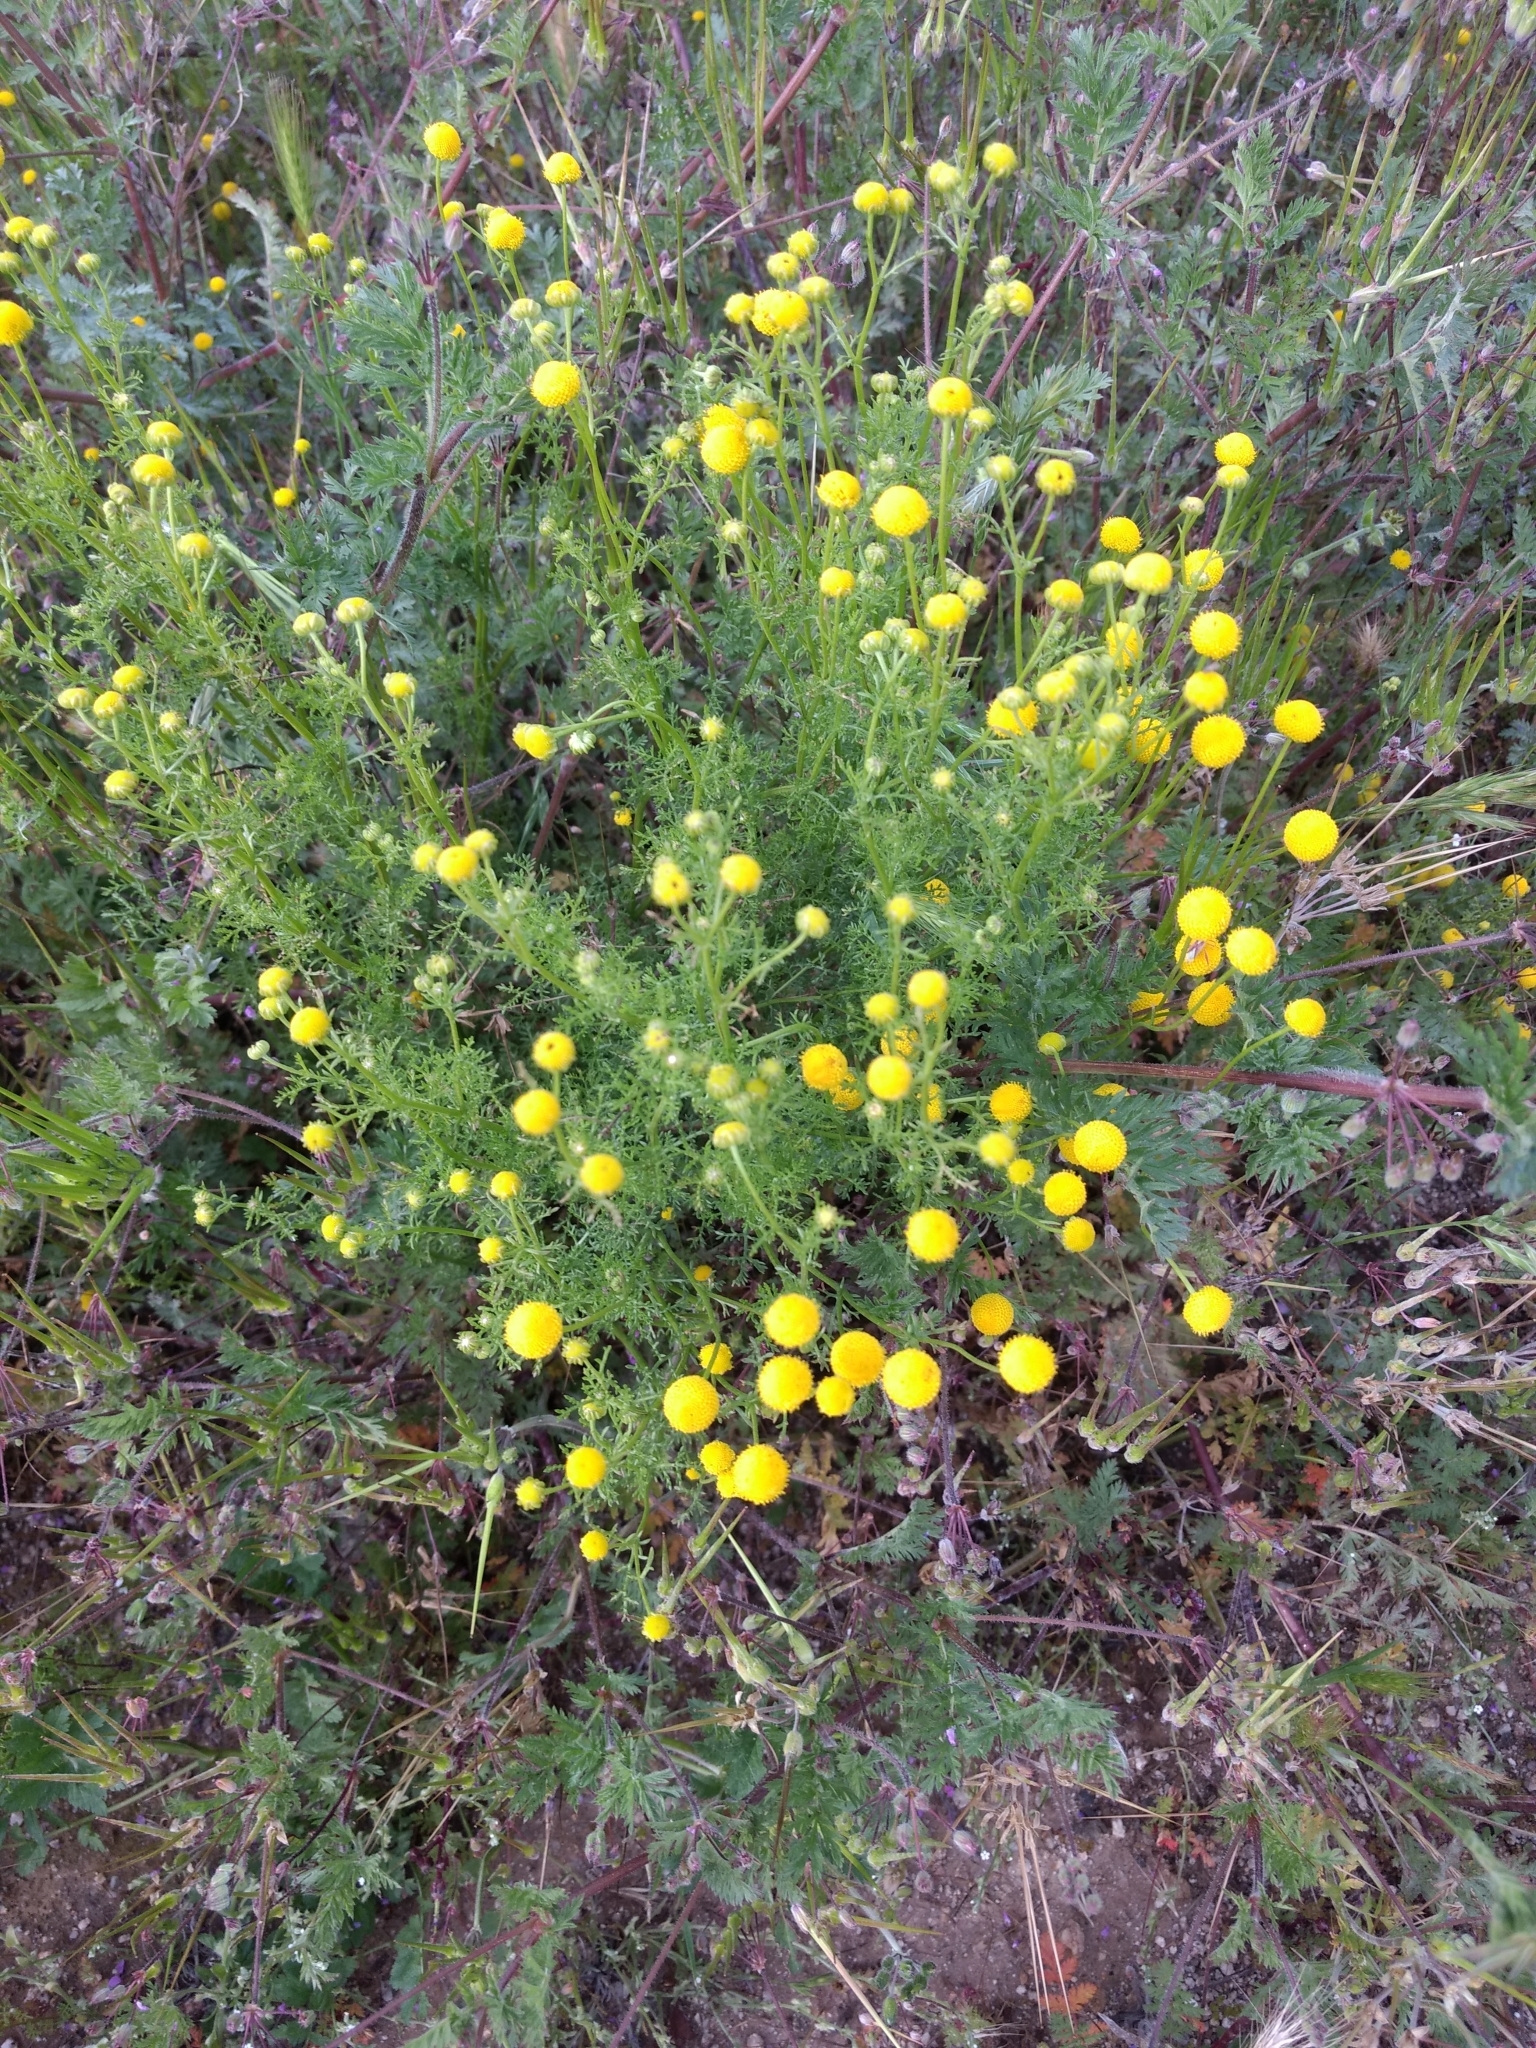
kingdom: Plantae
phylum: Tracheophyta
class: Magnoliopsida
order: Asterales
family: Asteraceae
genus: Oncosiphon
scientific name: Oncosiphon pilulifer
